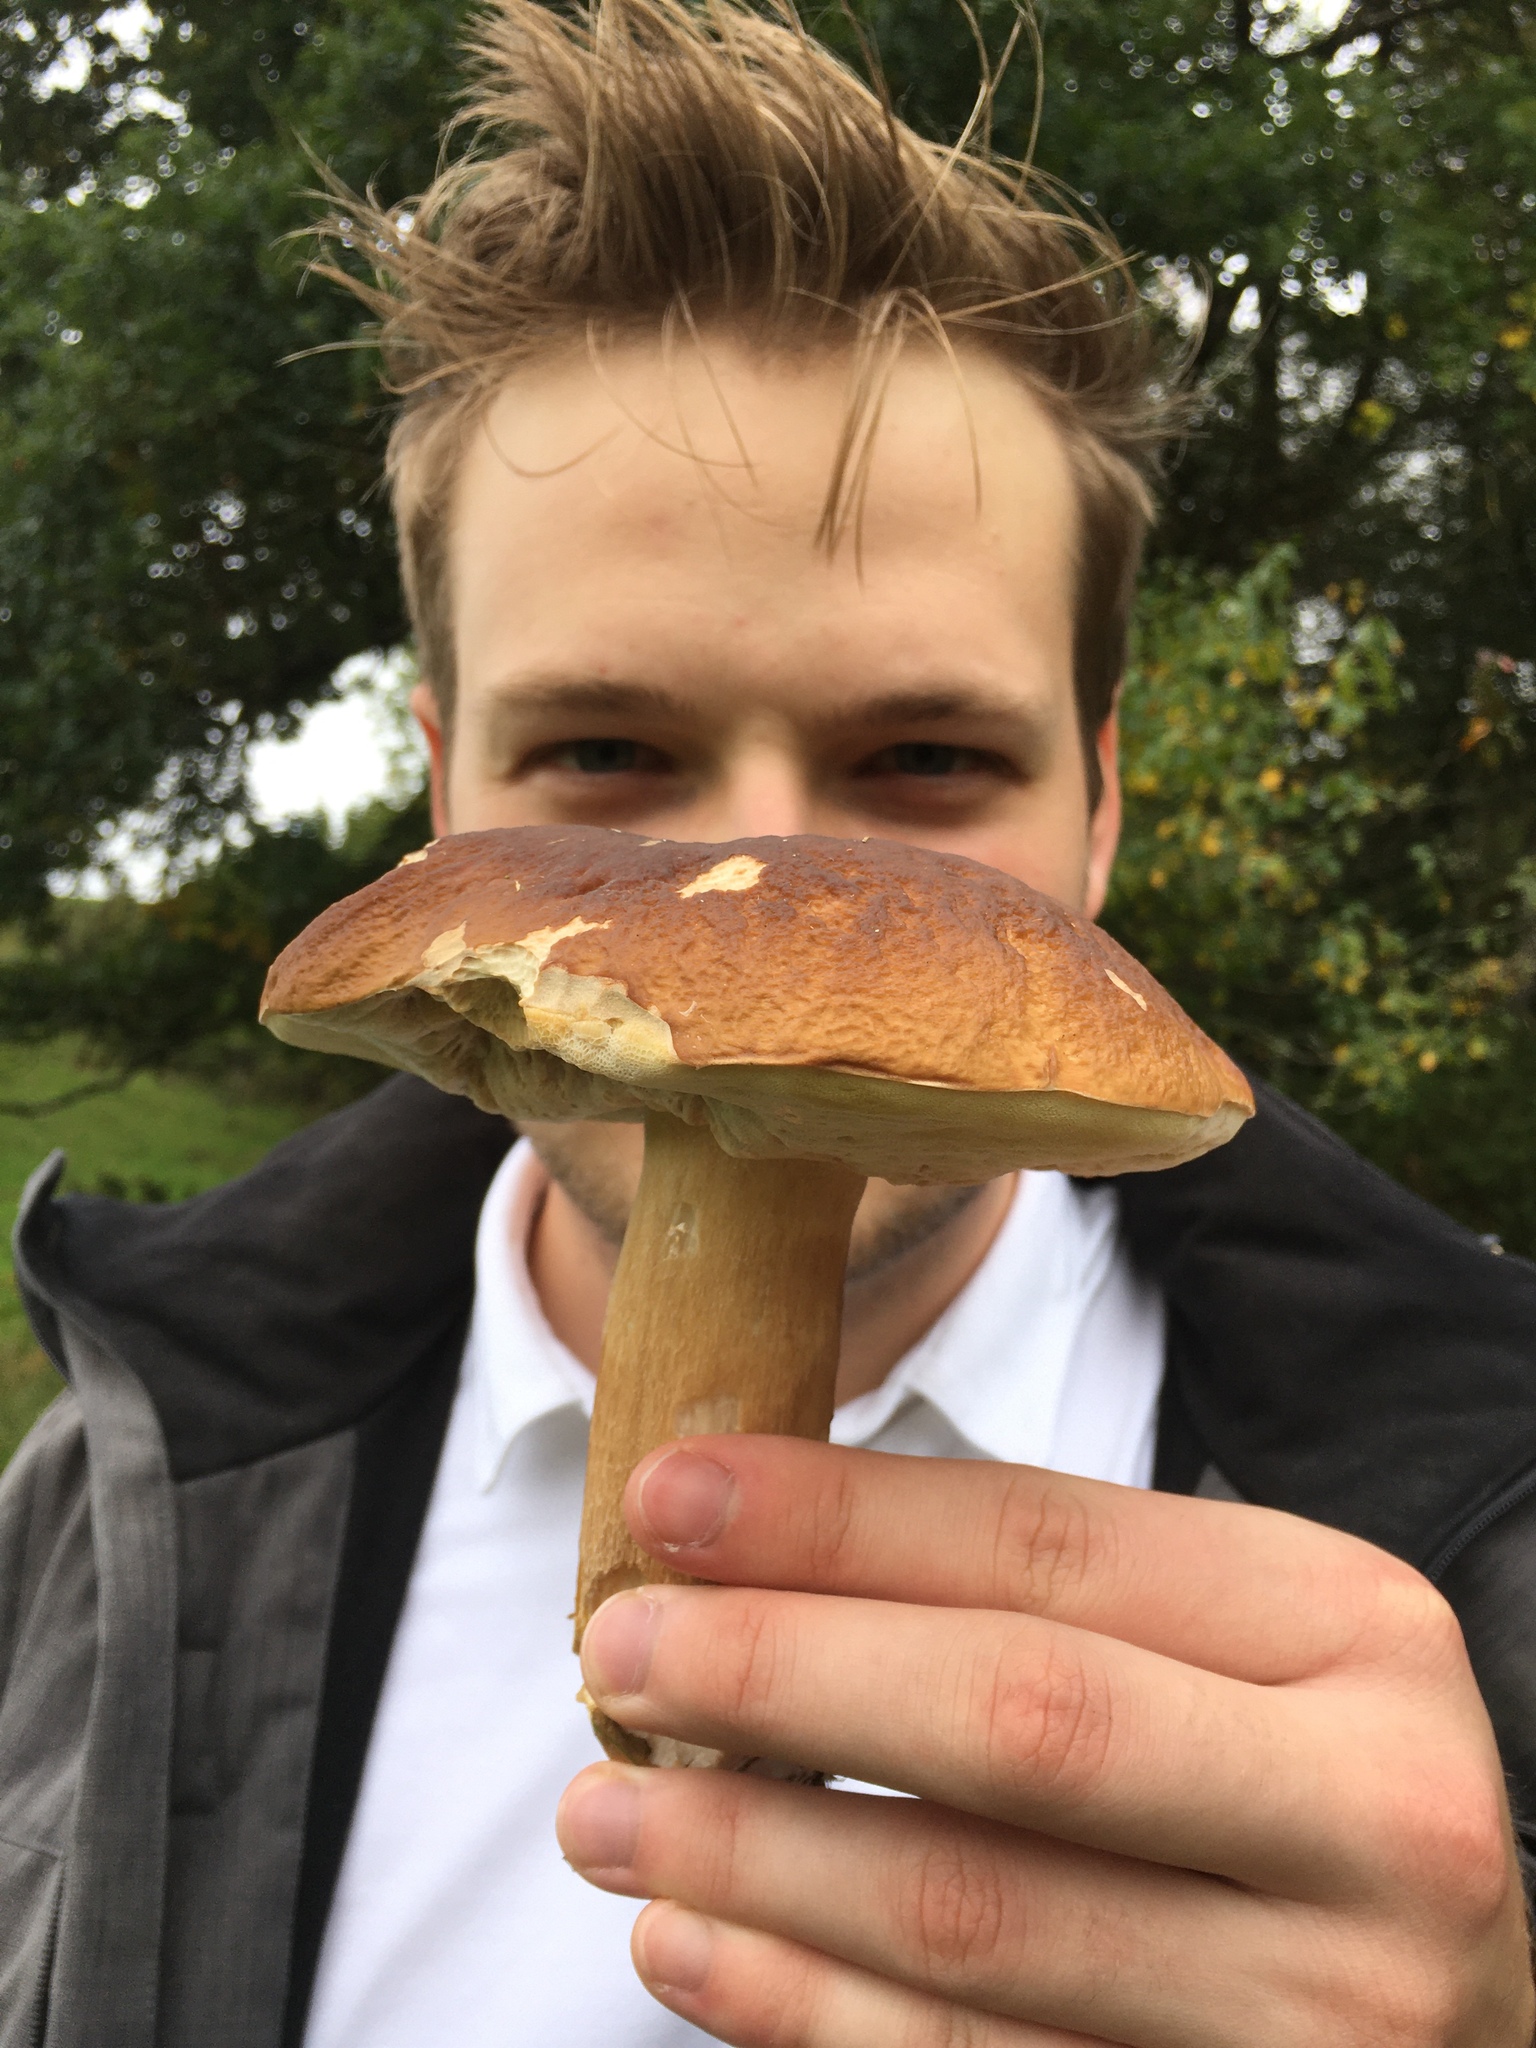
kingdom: Fungi
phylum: Basidiomycota
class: Agaricomycetes
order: Boletales
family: Boletaceae
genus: Boletus
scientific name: Boletus edulis
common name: Cep
